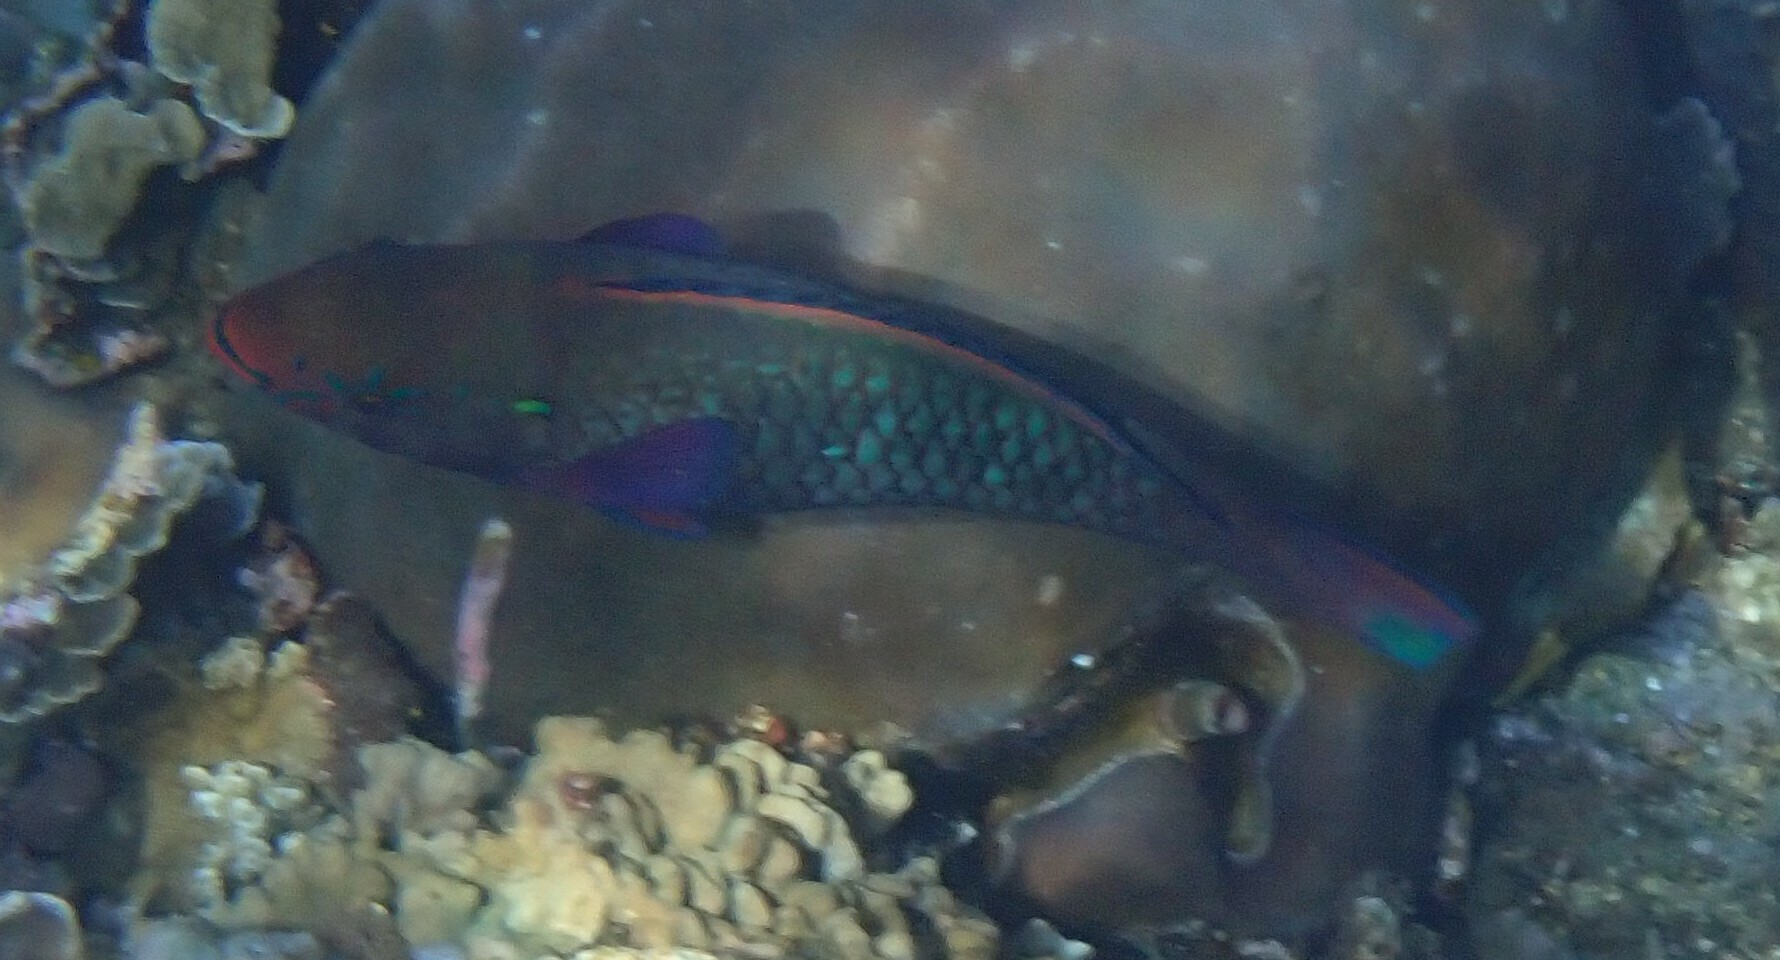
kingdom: Animalia
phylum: Chordata
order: Perciformes
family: Scaridae
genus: Scarus
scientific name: Scarus niger
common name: Dusky parrotfish
